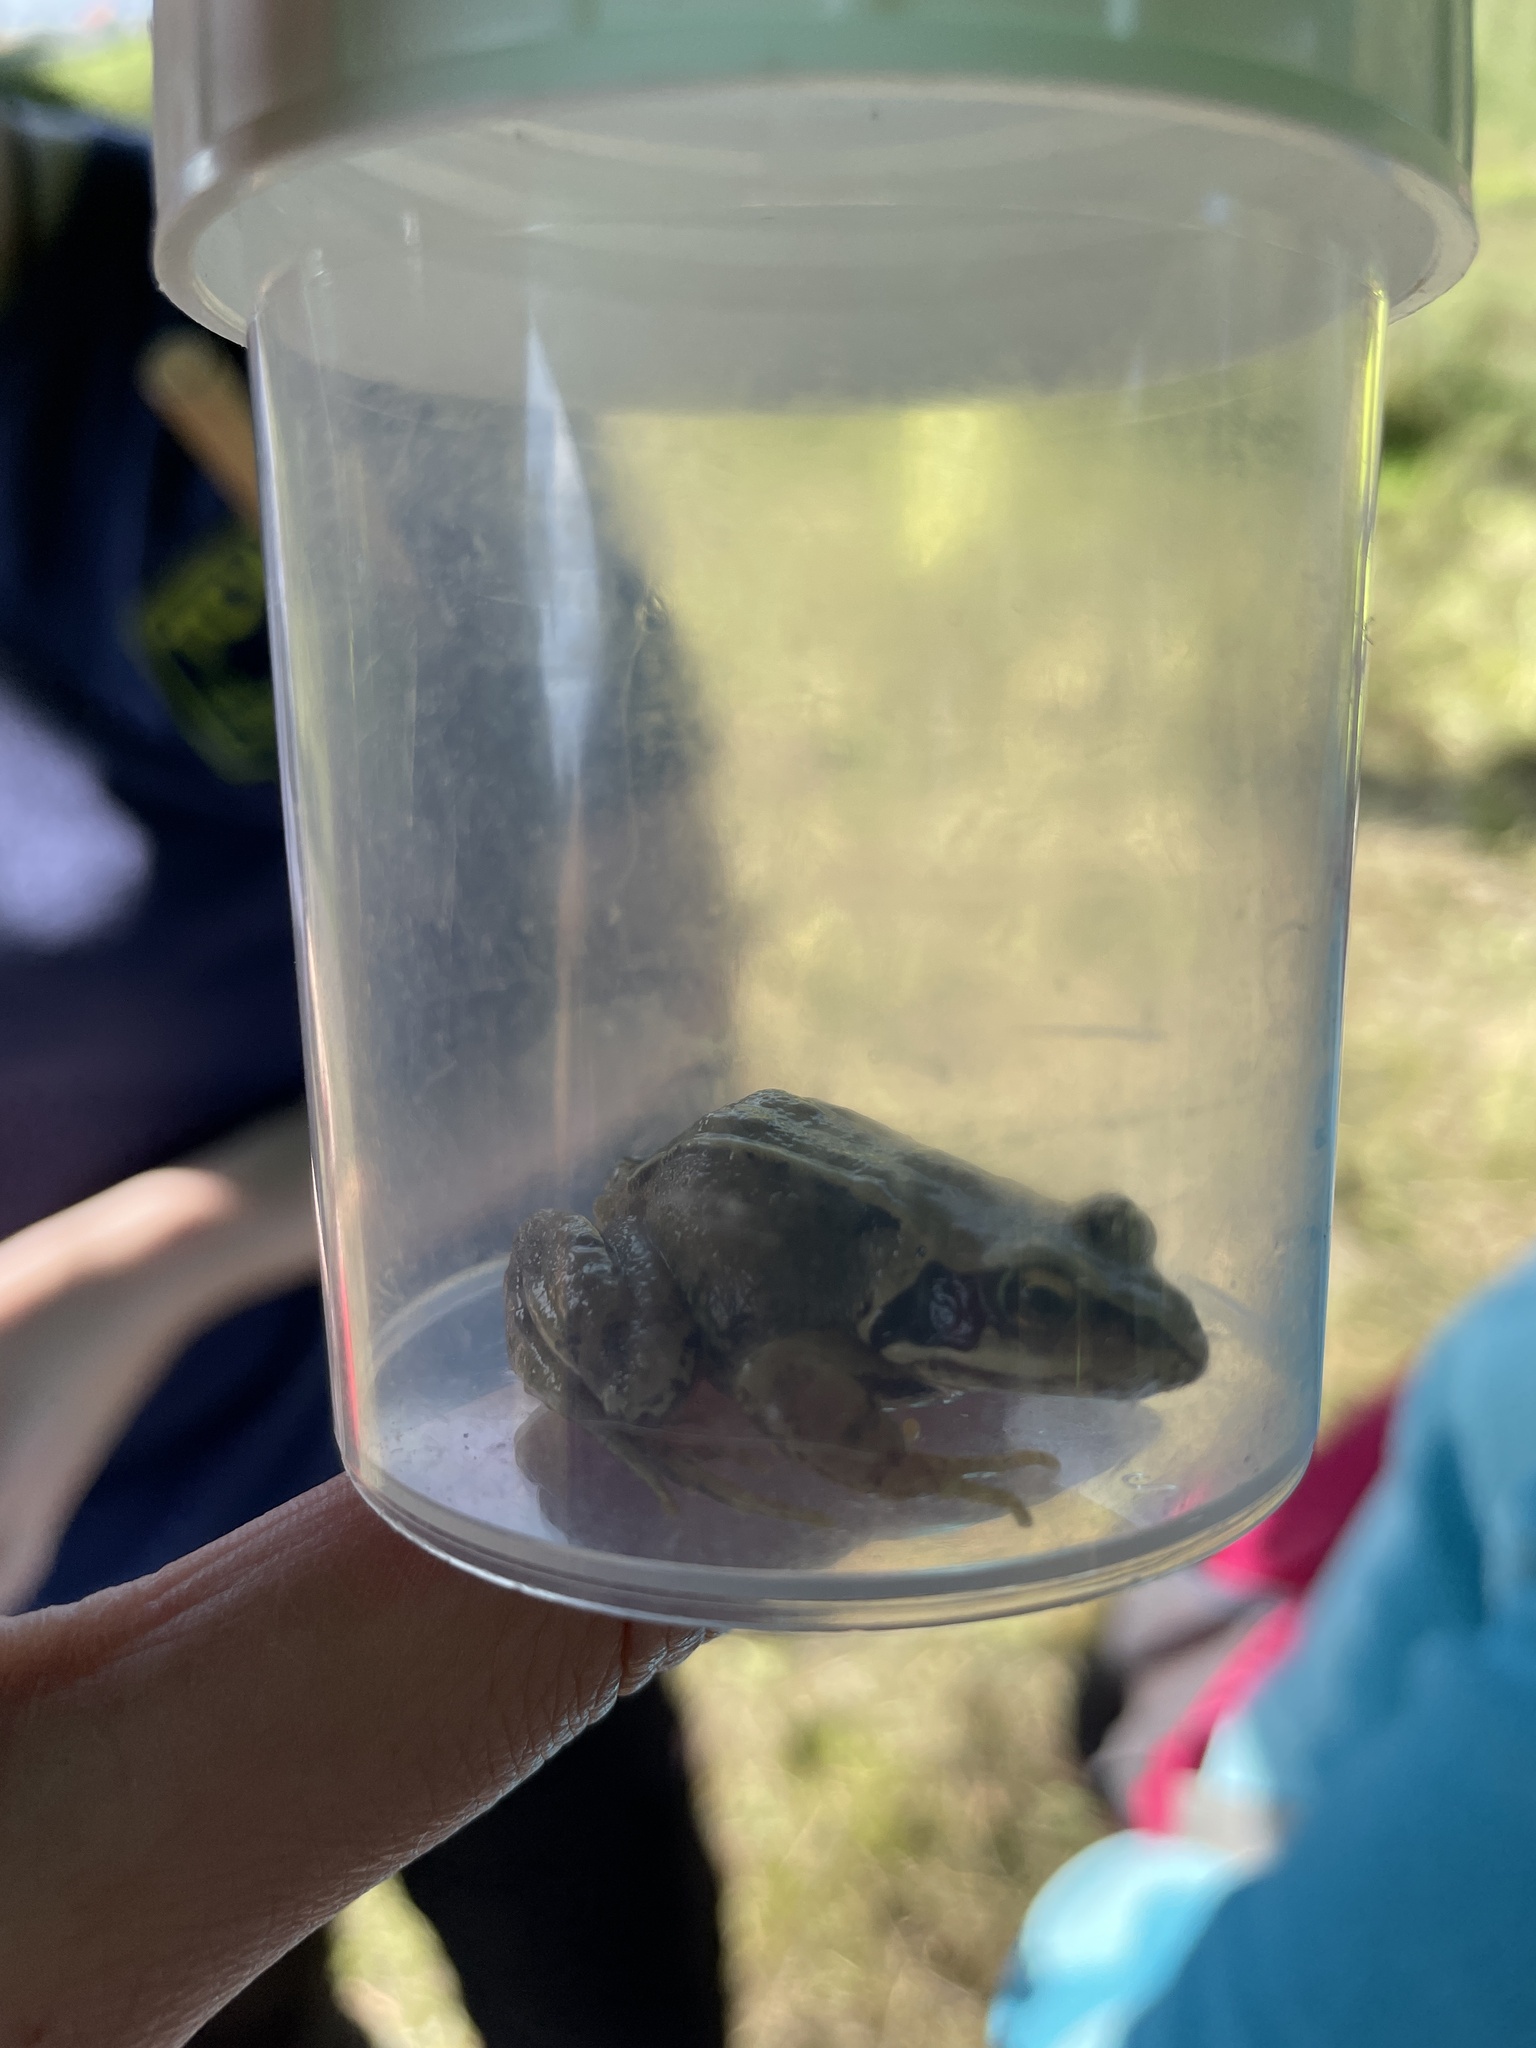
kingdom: Animalia
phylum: Chordata
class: Amphibia
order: Anura
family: Ranidae
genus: Rana
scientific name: Rana temporaria
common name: Common frog
